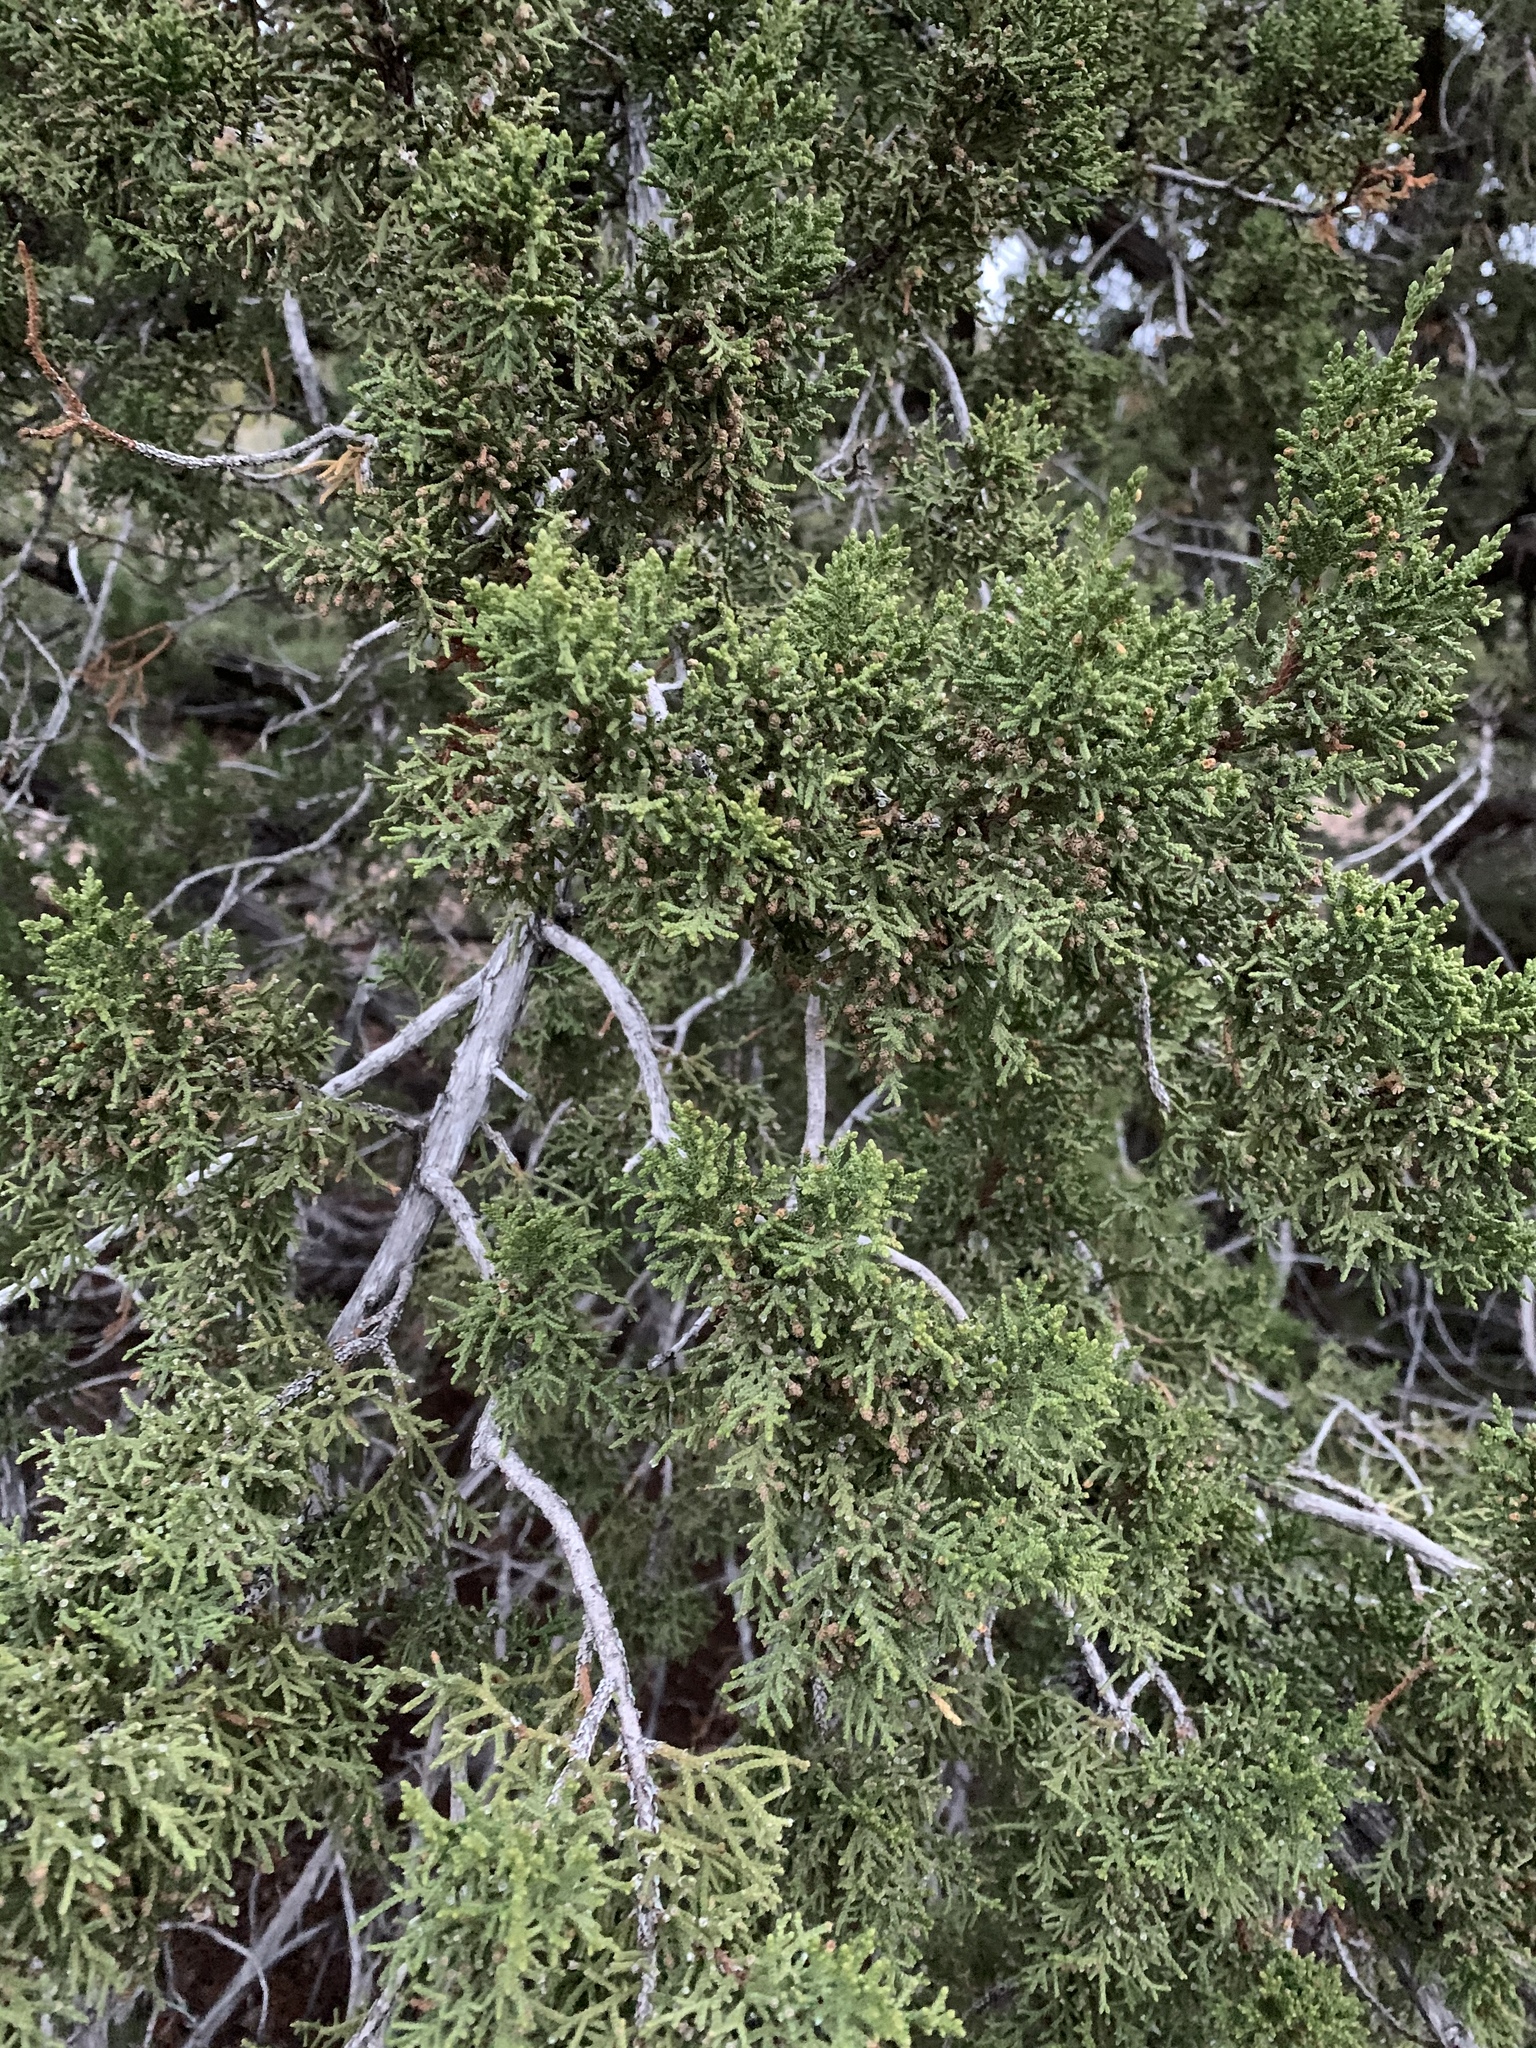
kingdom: Plantae
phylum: Tracheophyta
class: Pinopsida
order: Pinales
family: Cupressaceae
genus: Juniperus
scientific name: Juniperus monosperma
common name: One-seed juniper
